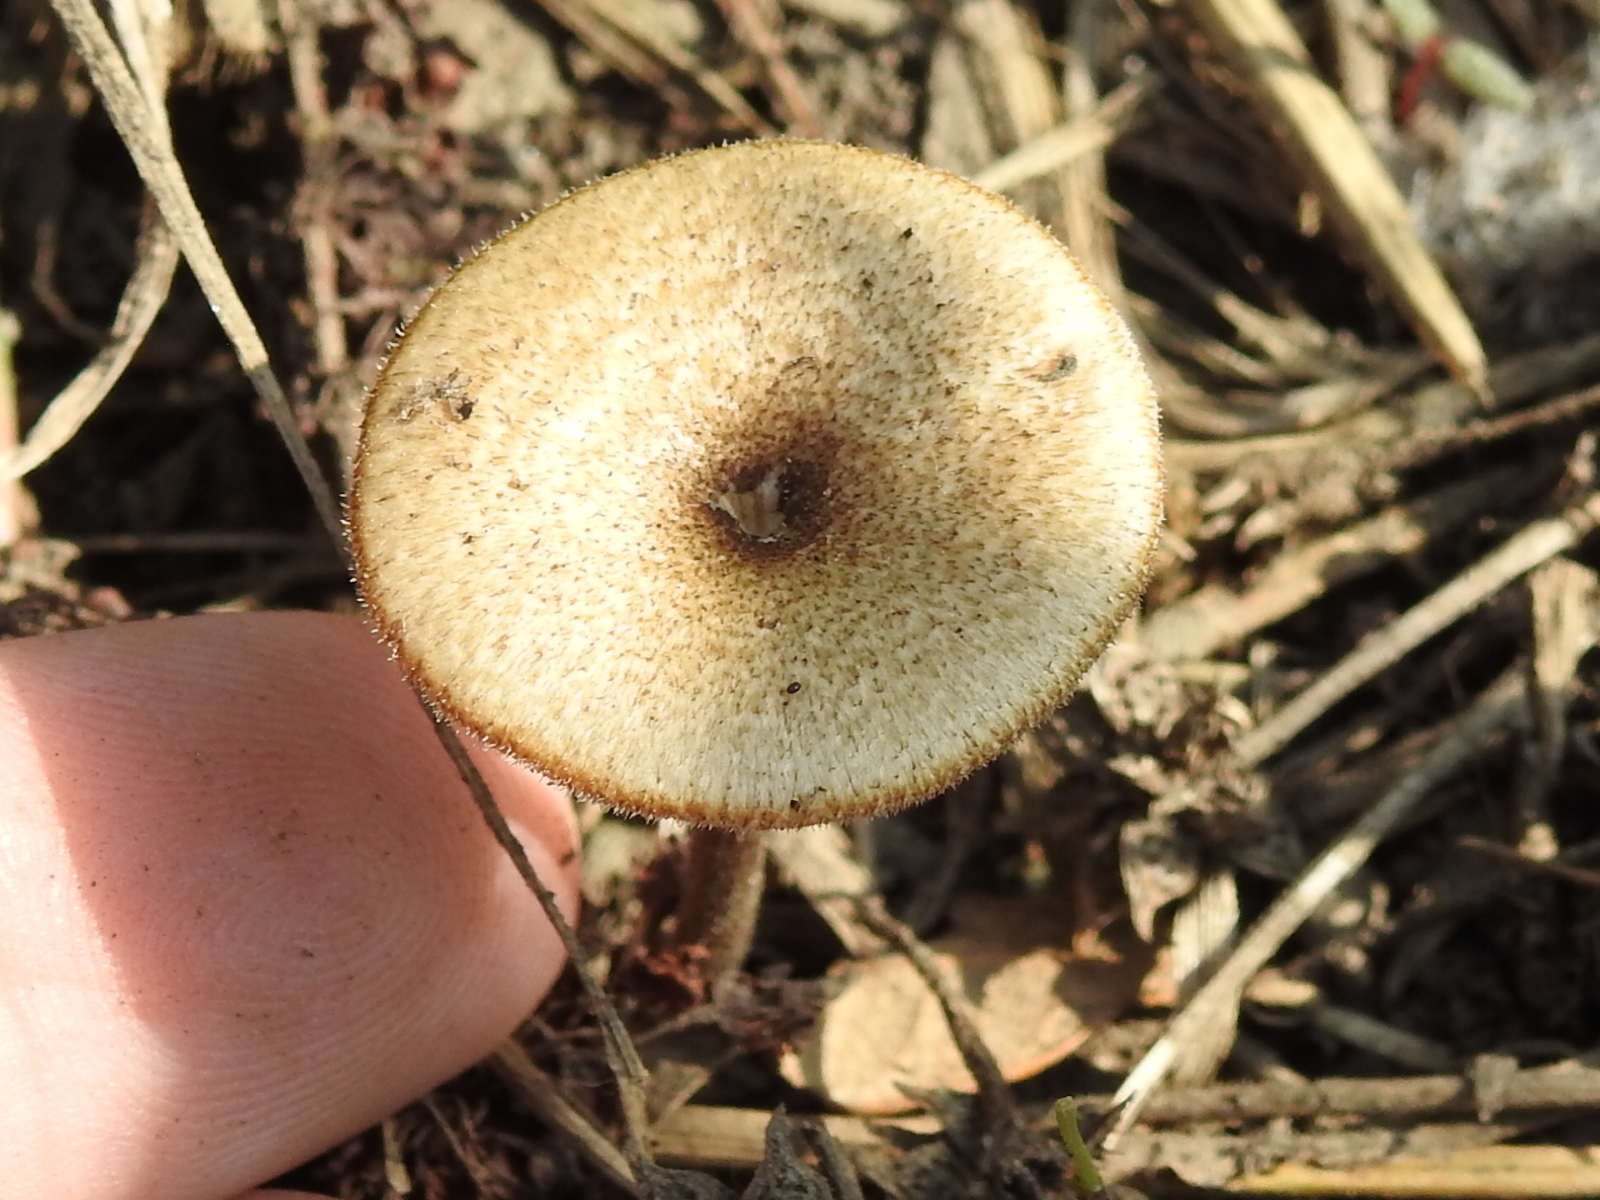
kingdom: Fungi
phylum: Basidiomycota
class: Agaricomycetes
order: Polyporales
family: Polyporaceae
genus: Lentinus
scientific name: Lentinus arcularius
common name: Spring polypore
